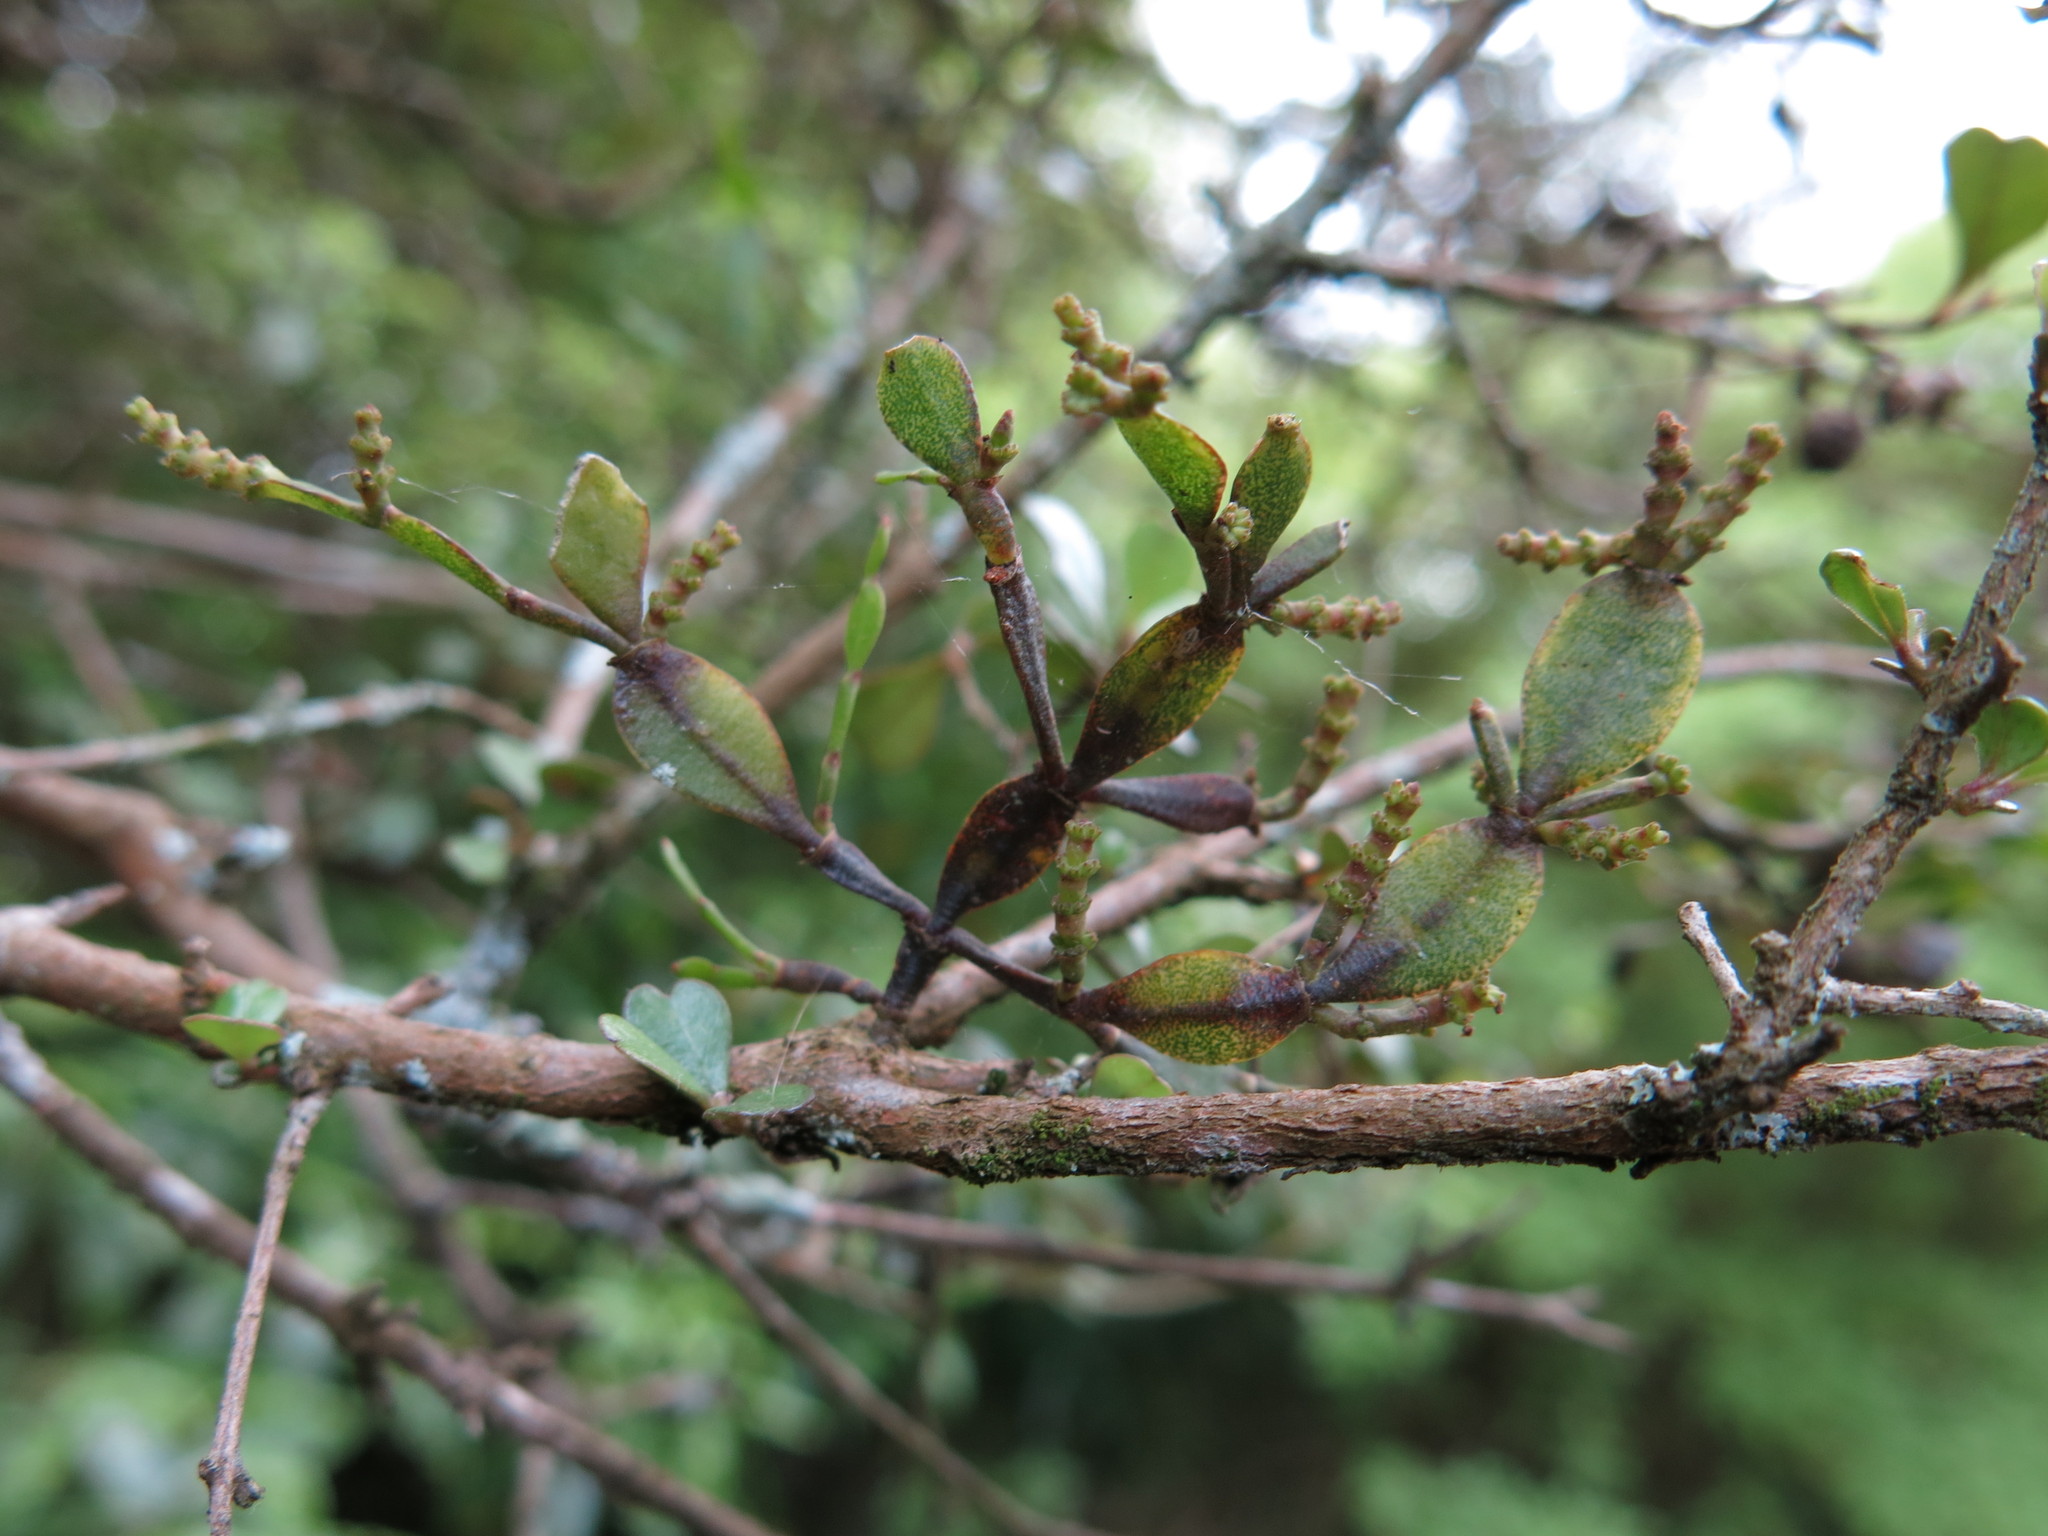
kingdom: Plantae
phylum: Tracheophyta
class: Magnoliopsida
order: Santalales
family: Viscaceae
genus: Korthalsella
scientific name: Korthalsella lindsayi
